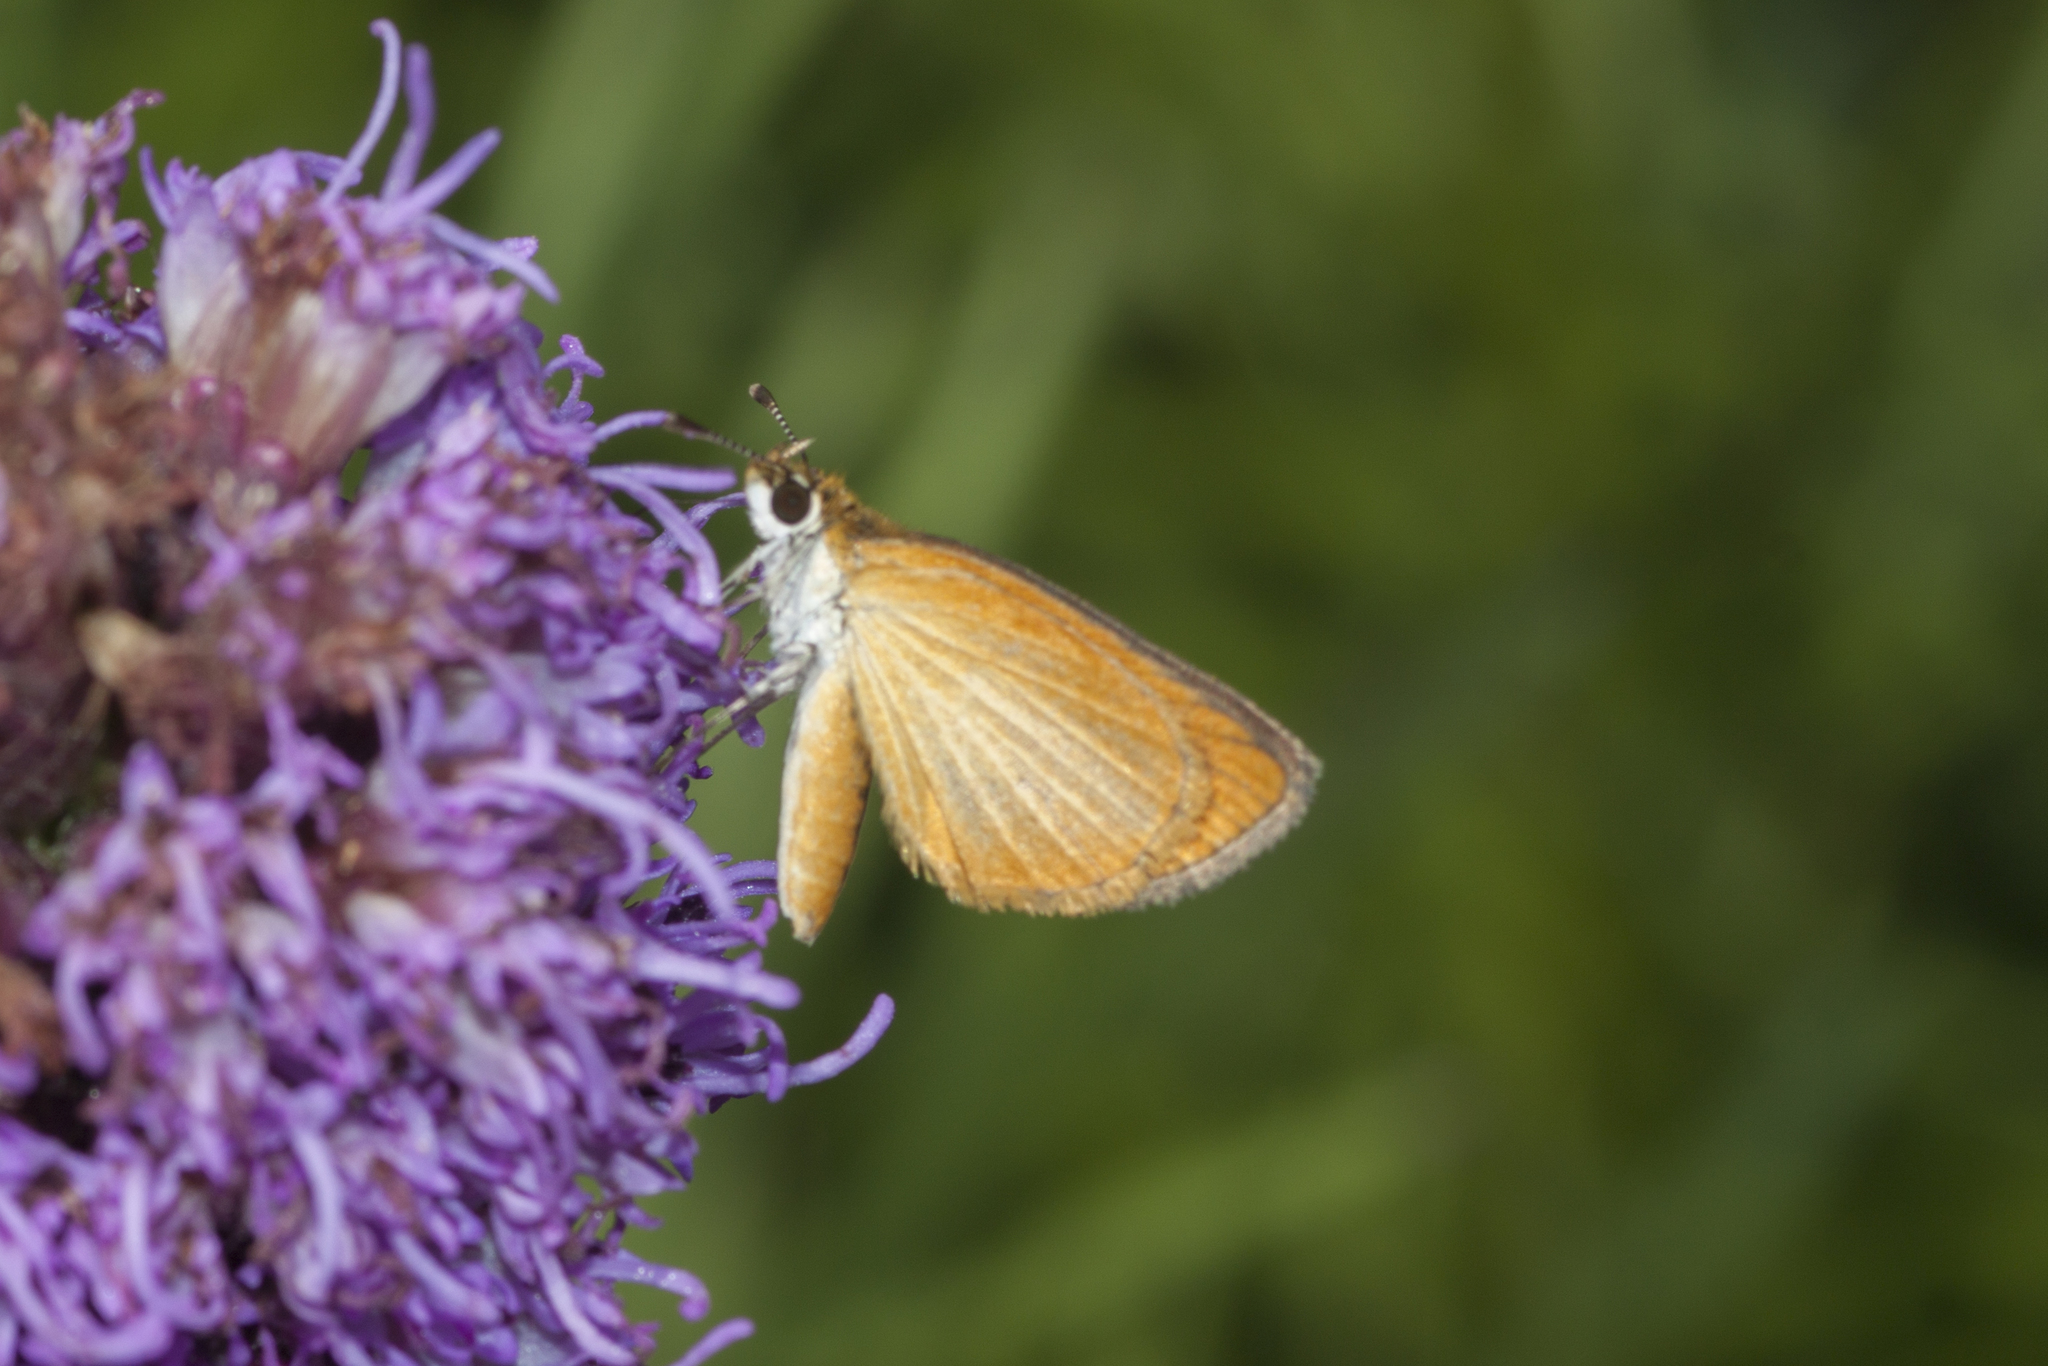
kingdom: Animalia
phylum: Arthropoda
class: Insecta
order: Lepidoptera
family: Hesperiidae
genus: Ancyloxypha
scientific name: Ancyloxypha numitor
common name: Least skipper
